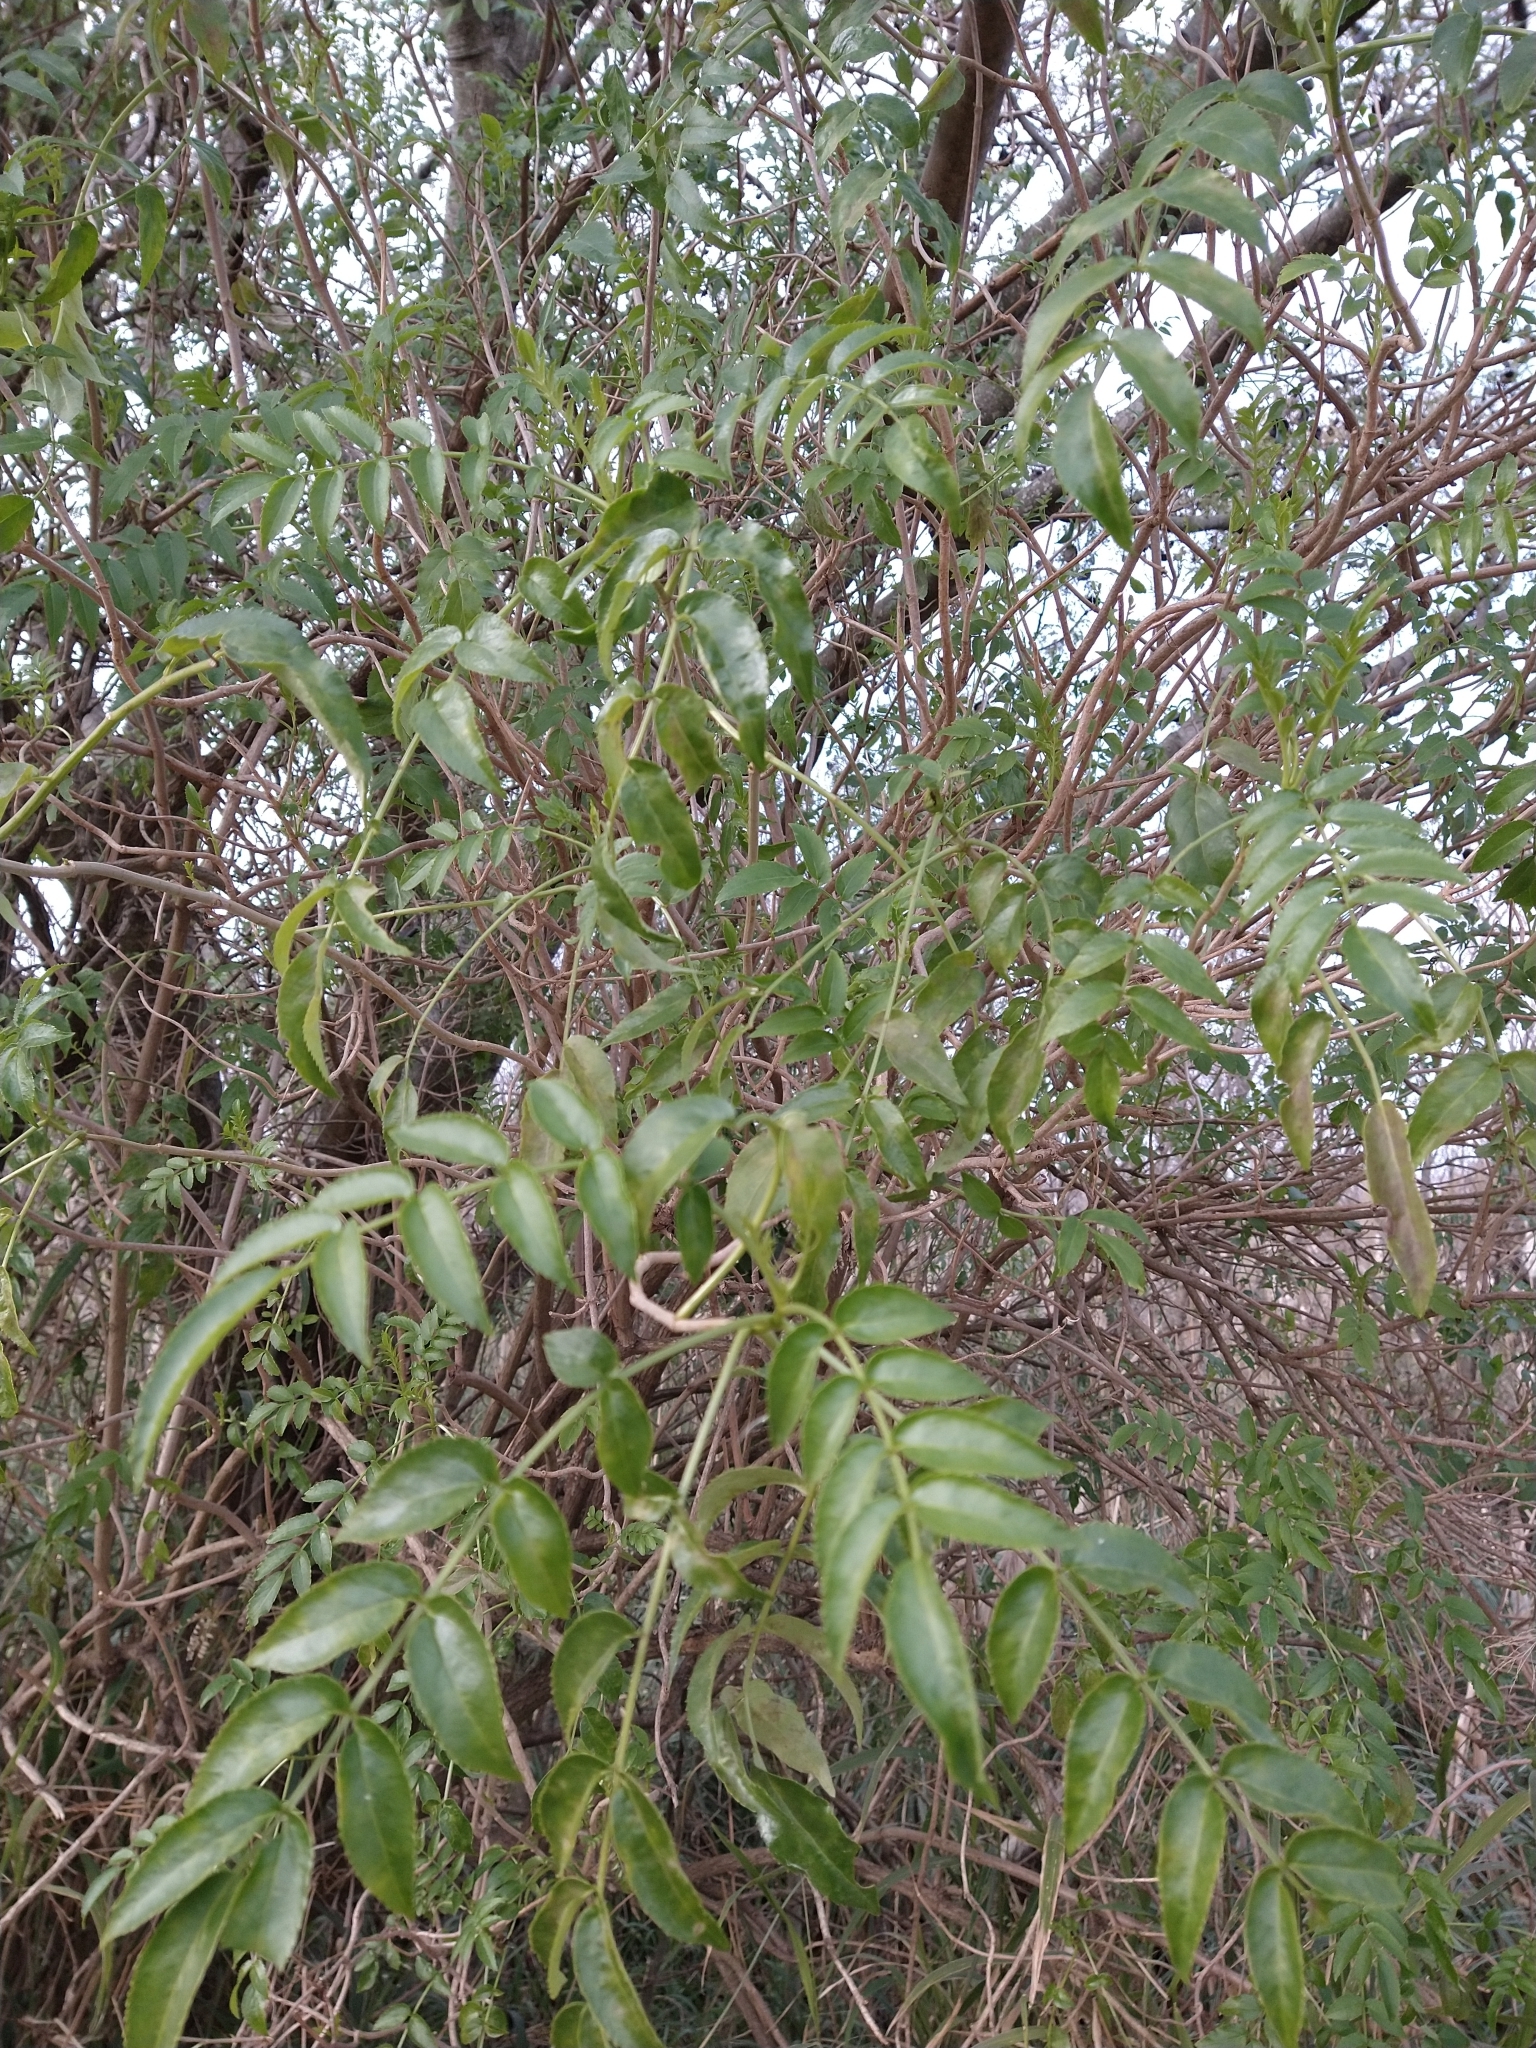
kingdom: Plantae
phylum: Tracheophyta
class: Magnoliopsida
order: Dipsacales
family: Viburnaceae
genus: Sambucus
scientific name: Sambucus australis
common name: Southern elder
